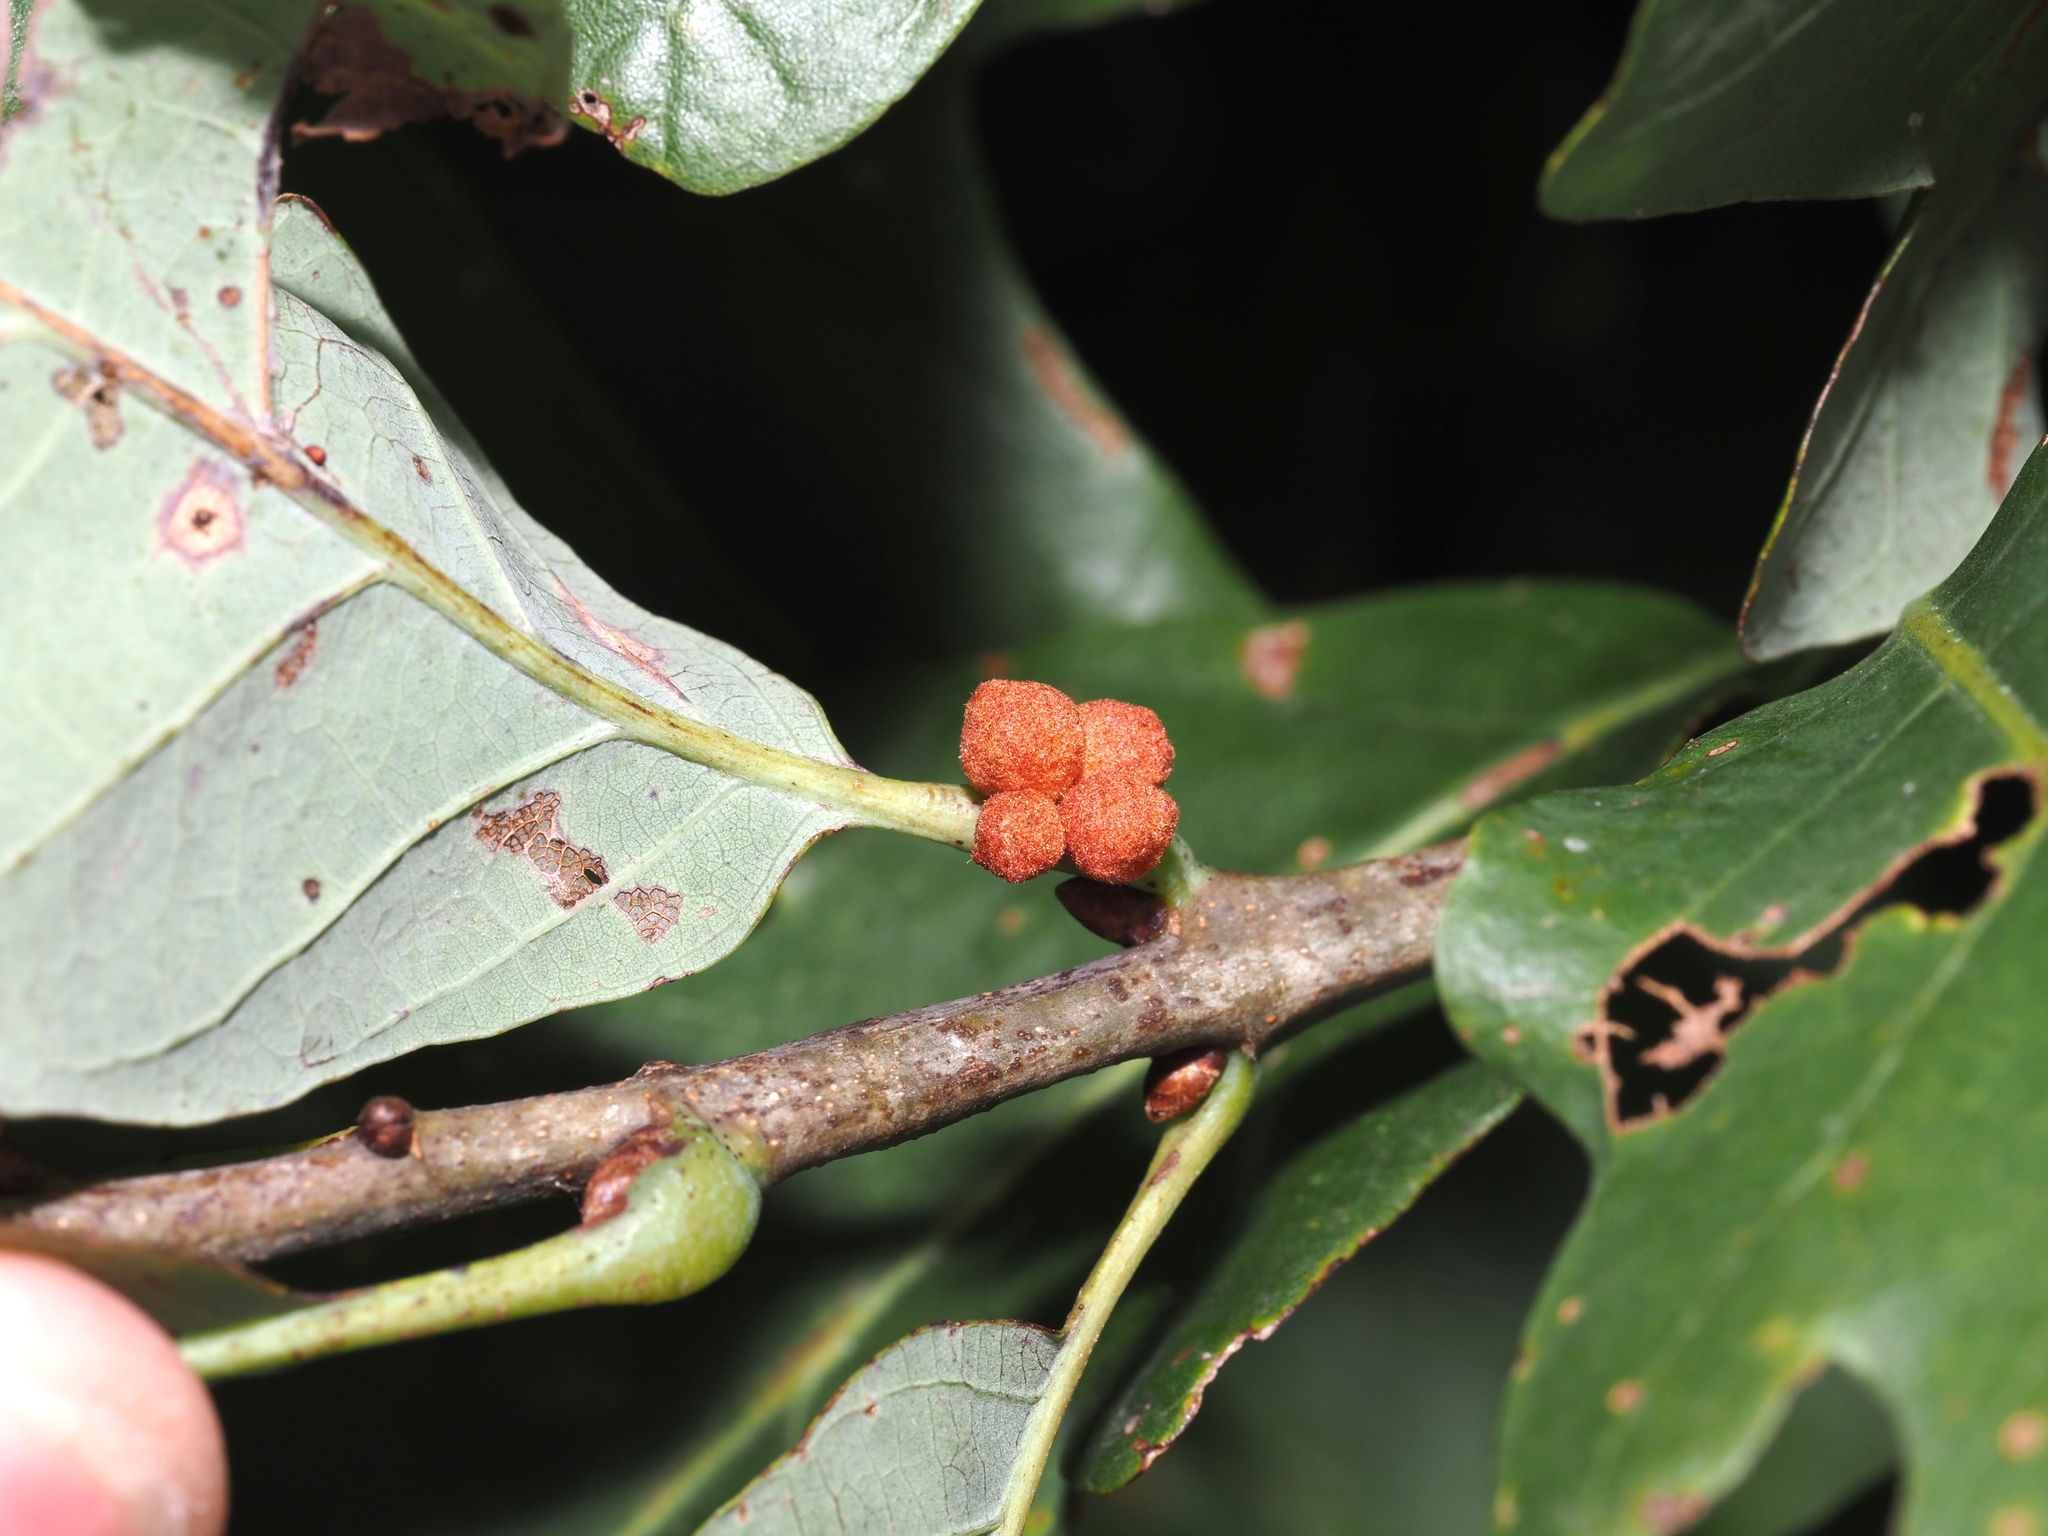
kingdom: Animalia
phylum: Arthropoda
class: Insecta
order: Hymenoptera
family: Cynipidae
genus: Andricus
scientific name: Andricus
